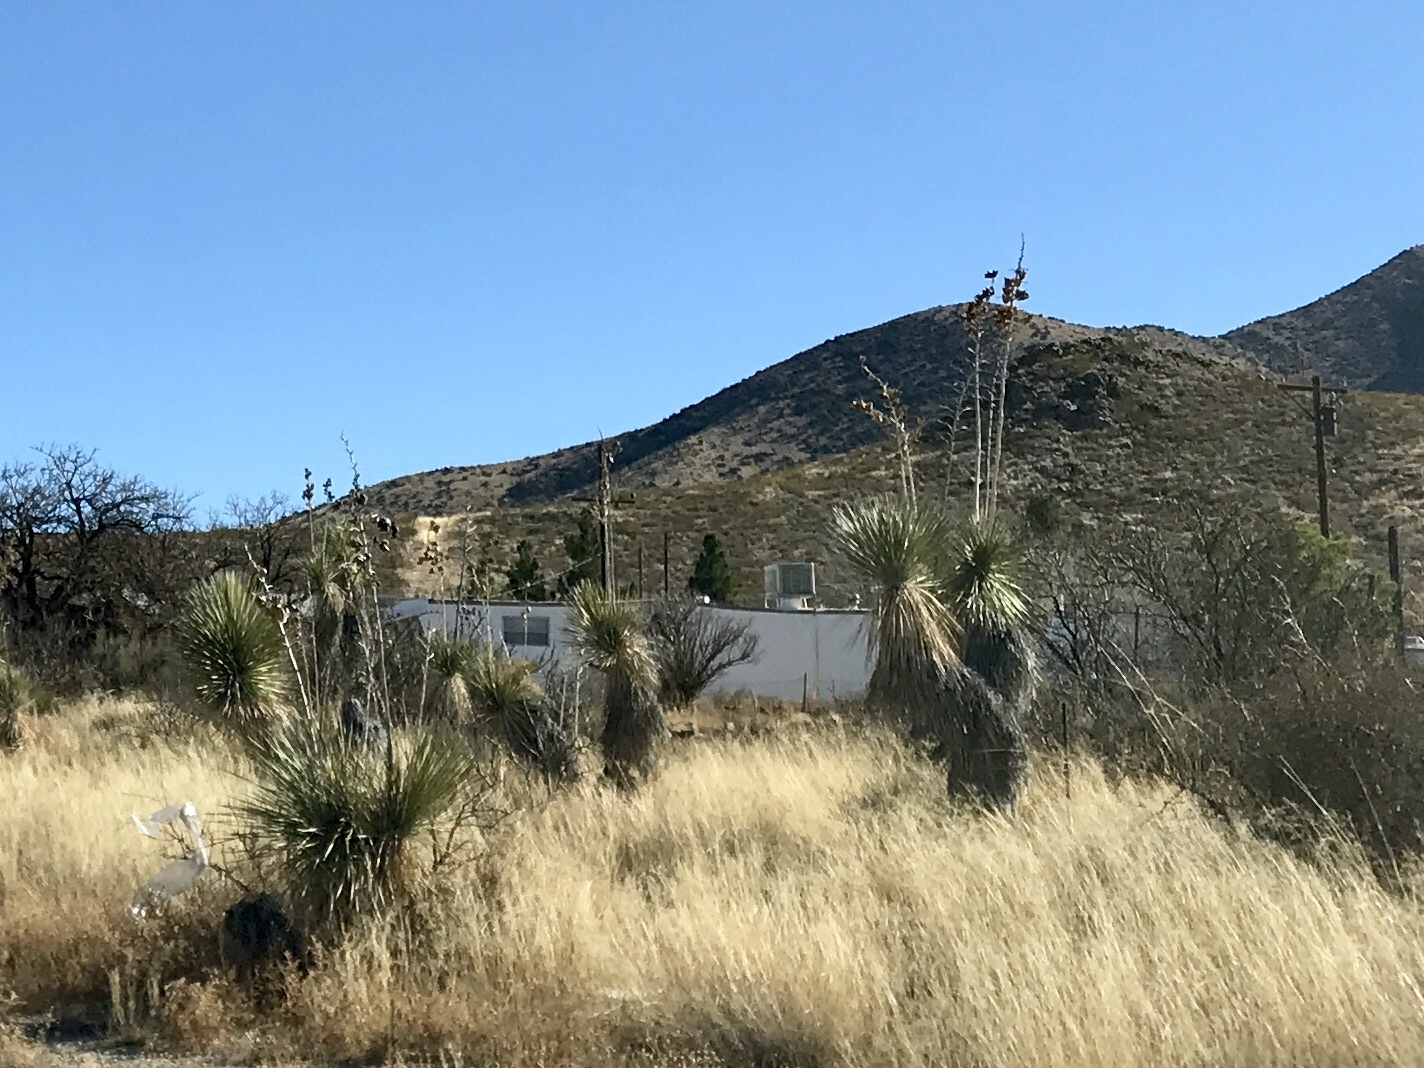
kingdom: Plantae
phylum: Tracheophyta
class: Liliopsida
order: Asparagales
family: Asparagaceae
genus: Yucca
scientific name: Yucca elata
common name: Palmella
